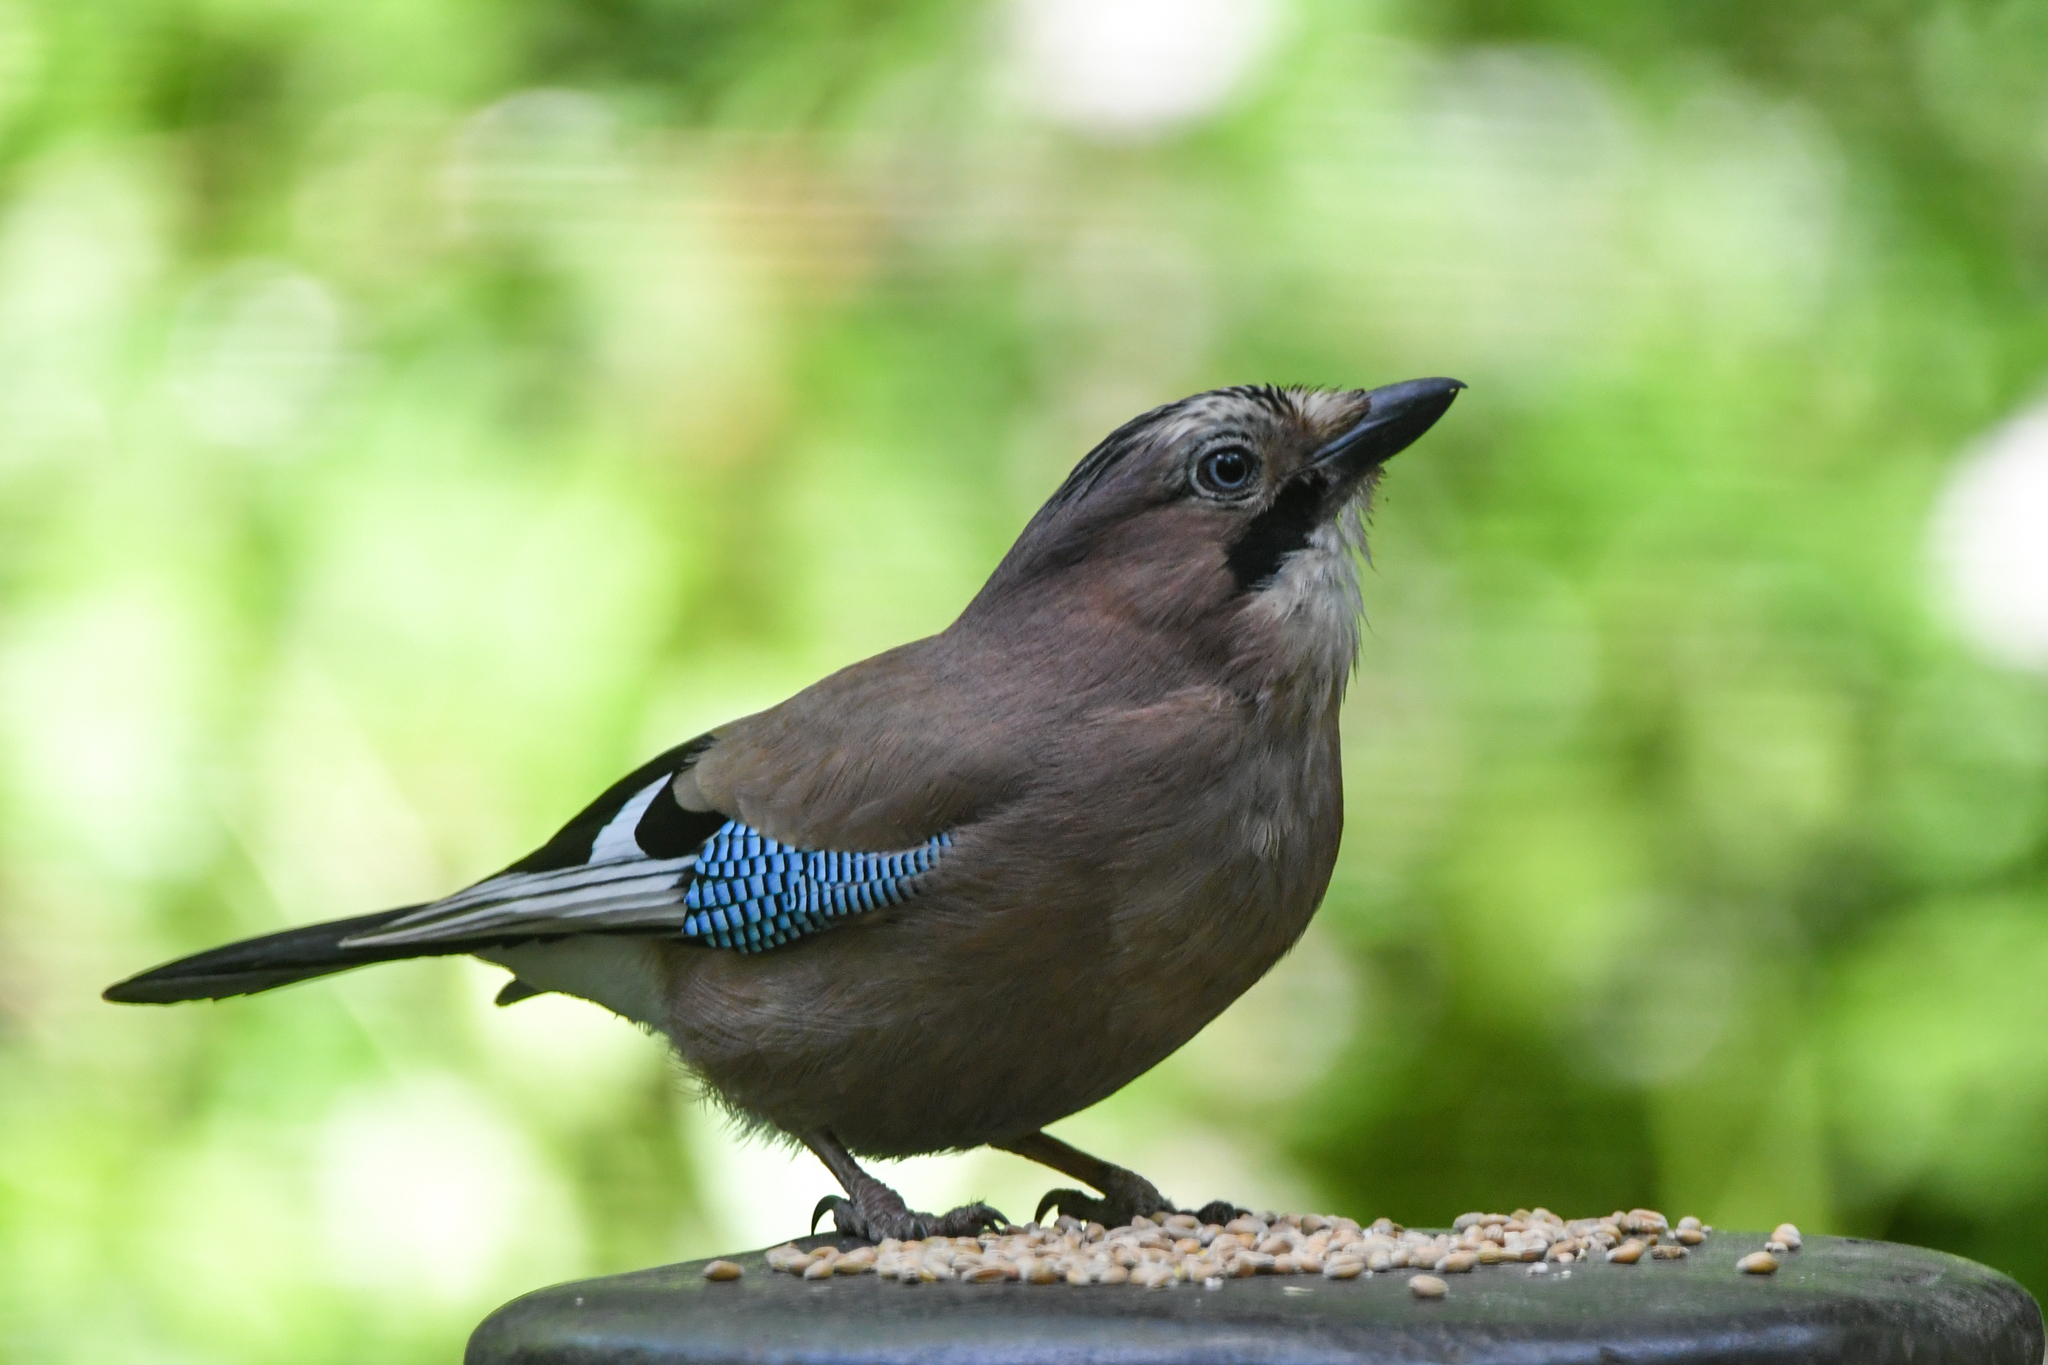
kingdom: Animalia
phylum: Chordata
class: Aves
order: Passeriformes
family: Corvidae
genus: Garrulus
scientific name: Garrulus glandarius
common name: Eurasian jay
